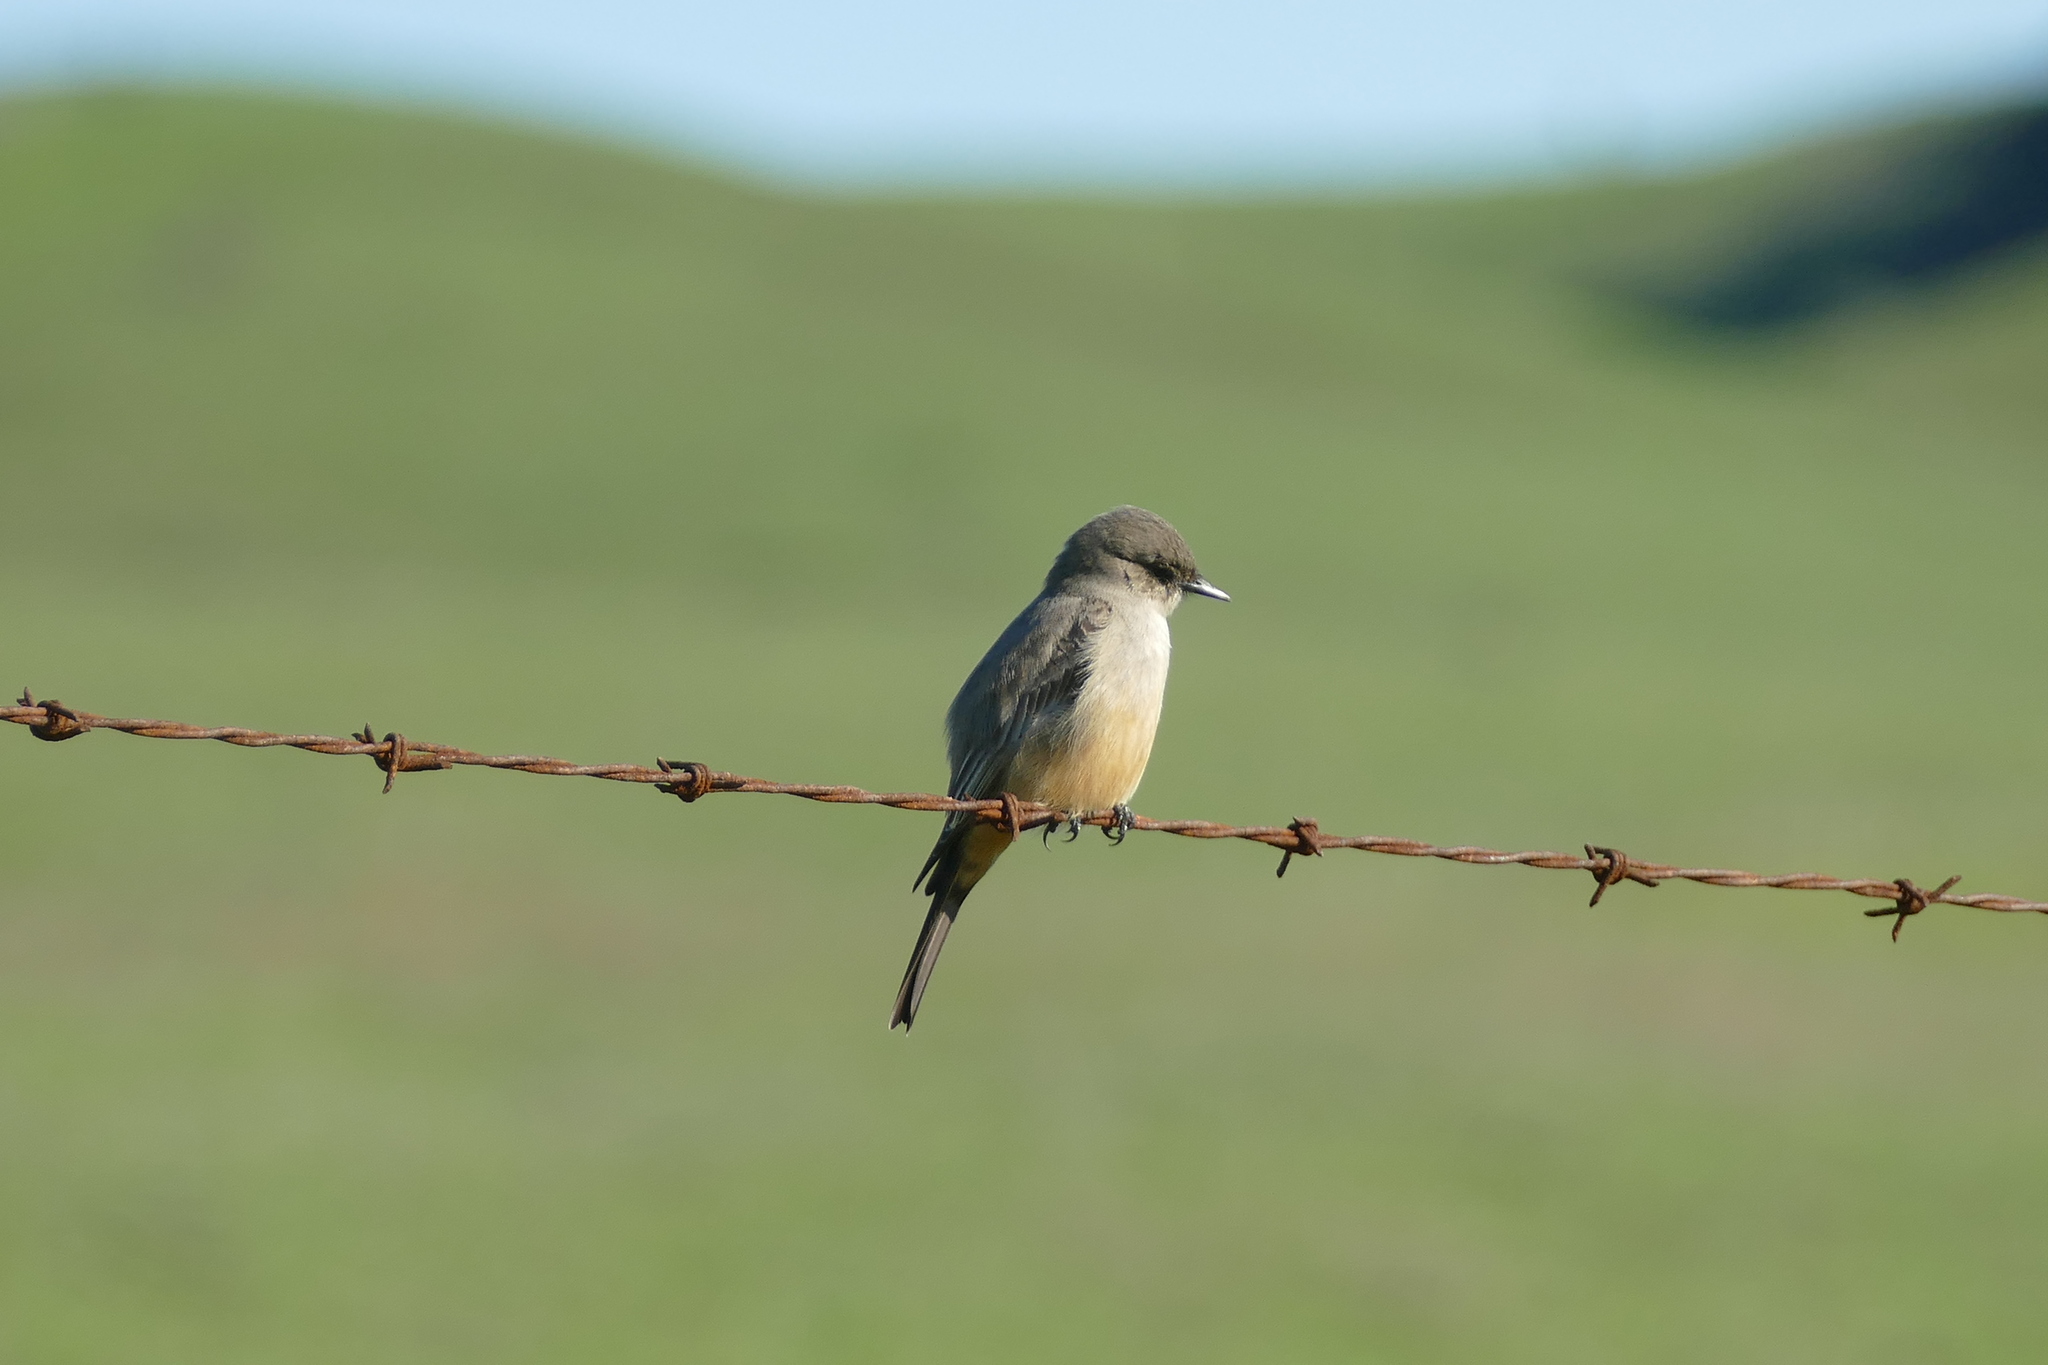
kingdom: Animalia
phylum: Chordata
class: Aves
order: Passeriformes
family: Tyrannidae
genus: Sayornis
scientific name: Sayornis saya
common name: Say's phoebe
